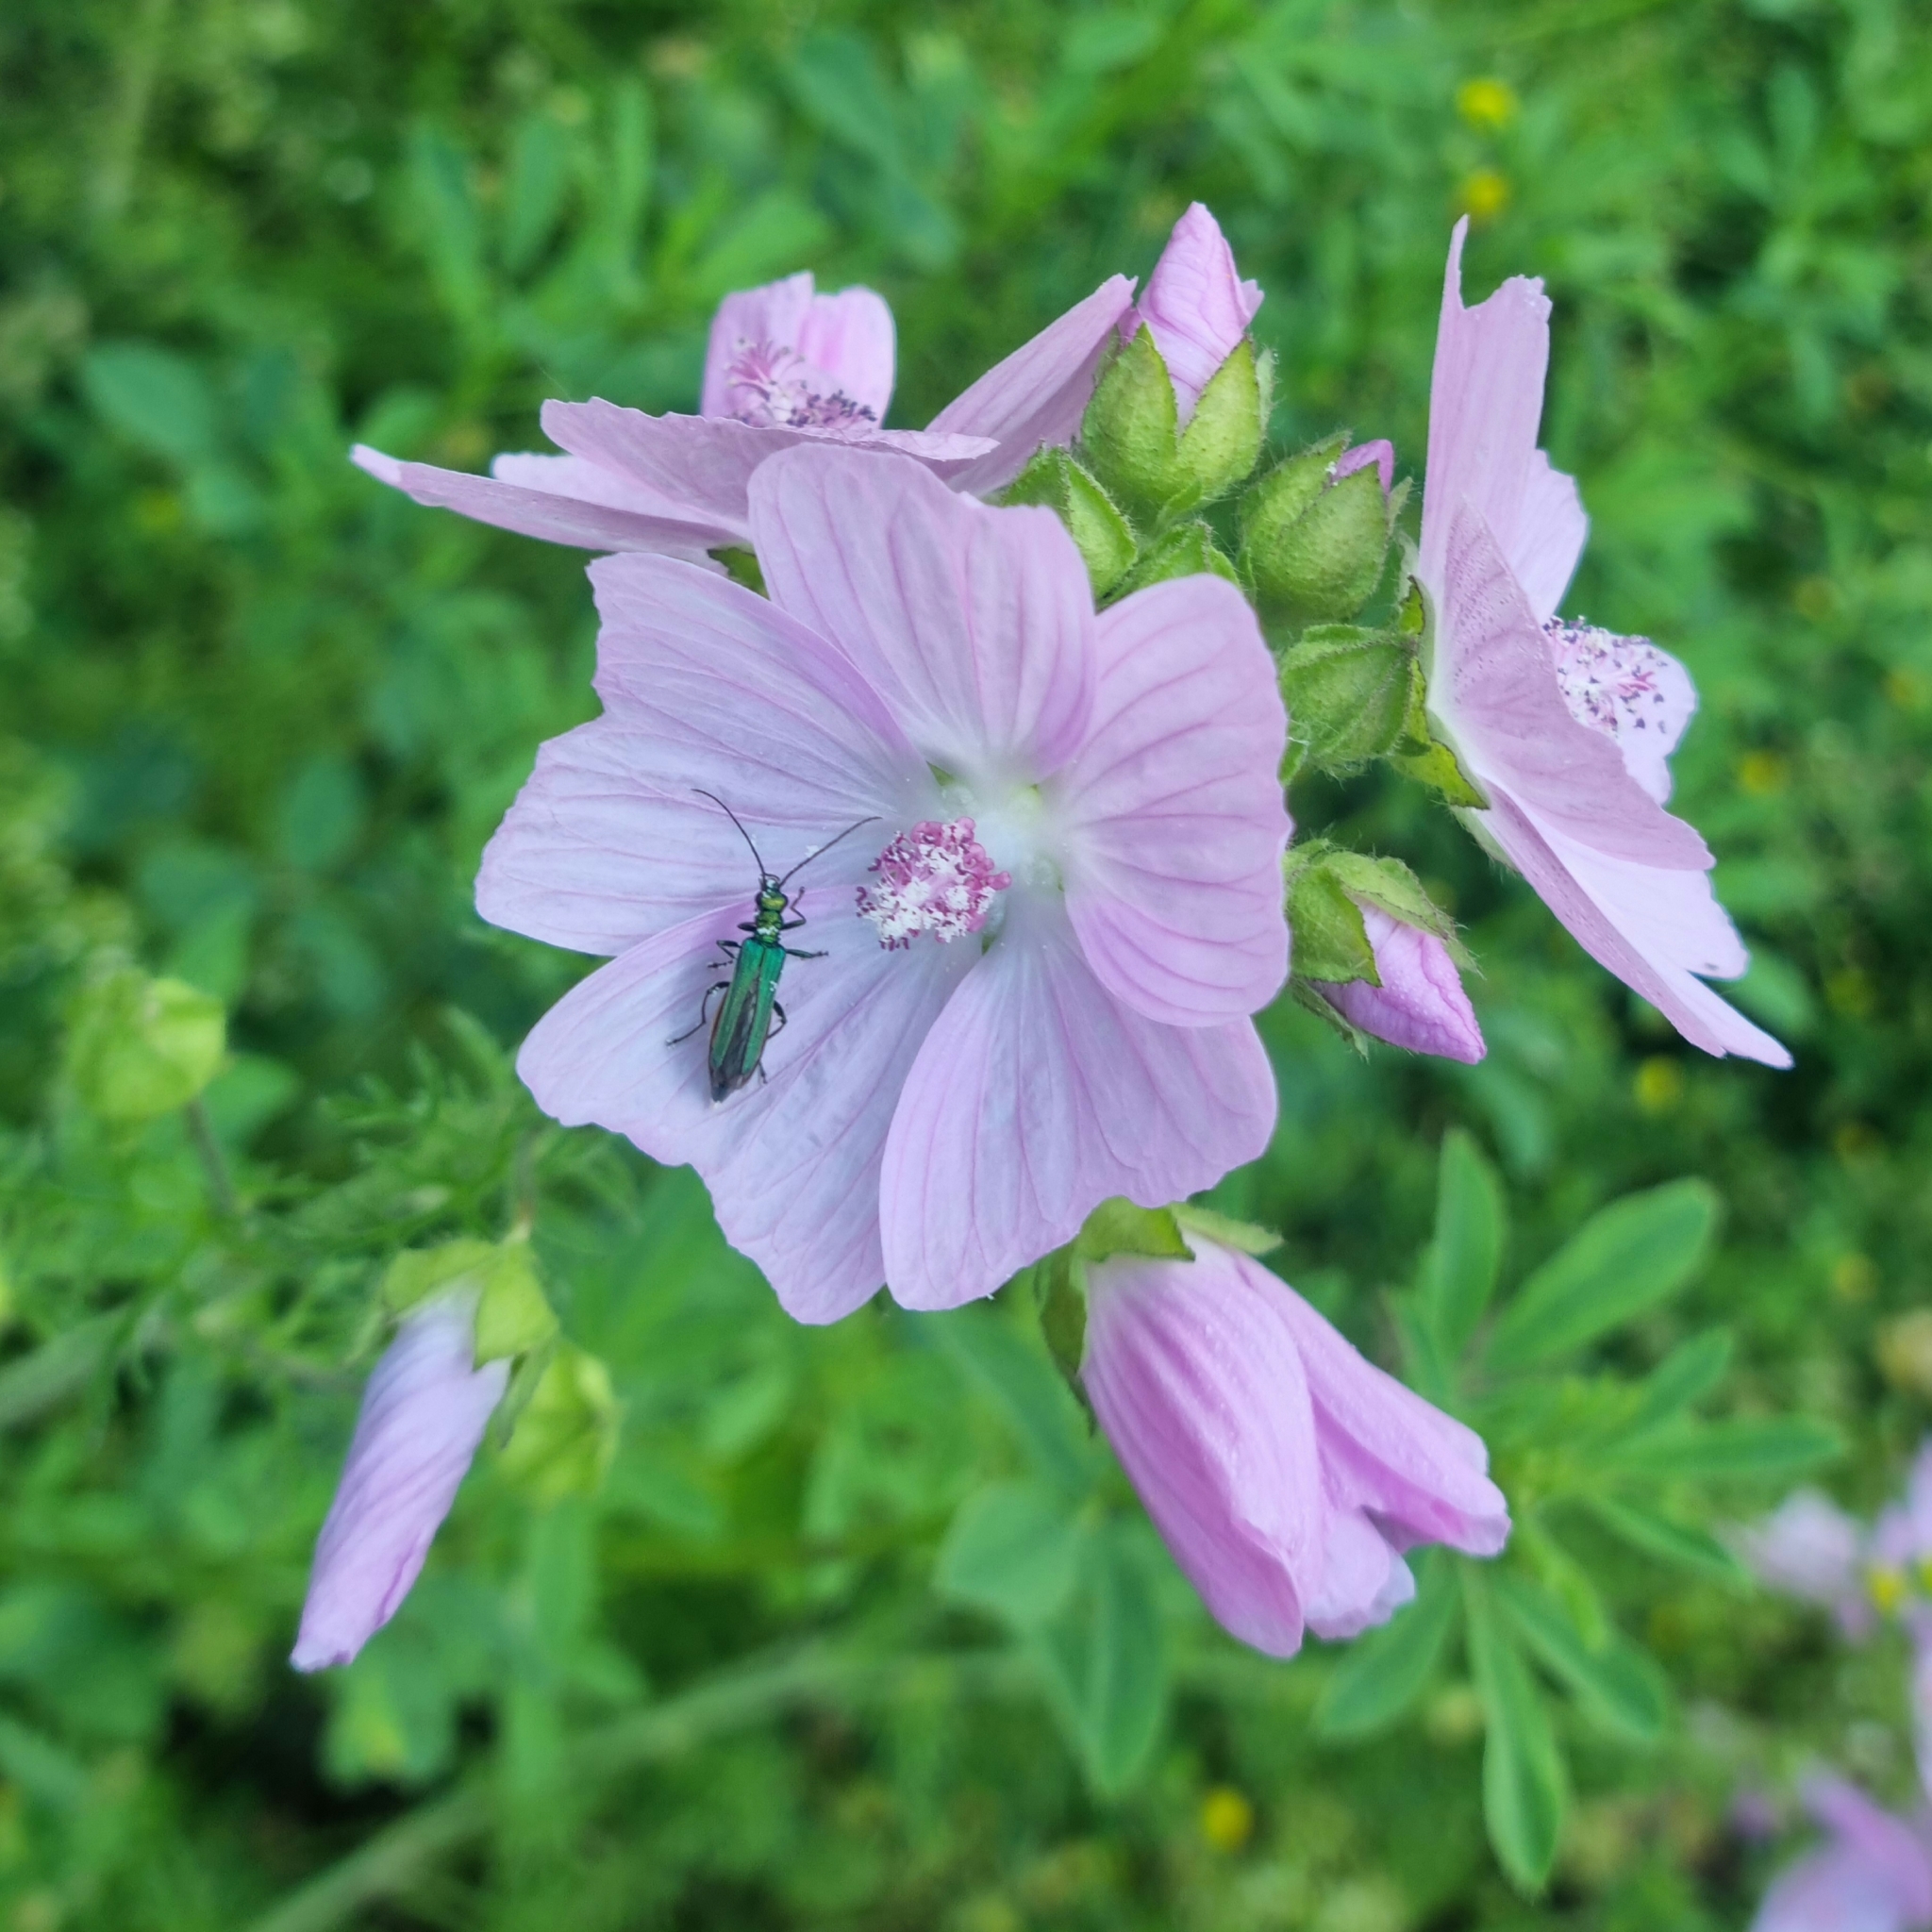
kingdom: Animalia
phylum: Arthropoda
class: Insecta
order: Coleoptera
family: Oedemeridae
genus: Oedemera
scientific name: Oedemera nobilis
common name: Swollen-thighed beetle
